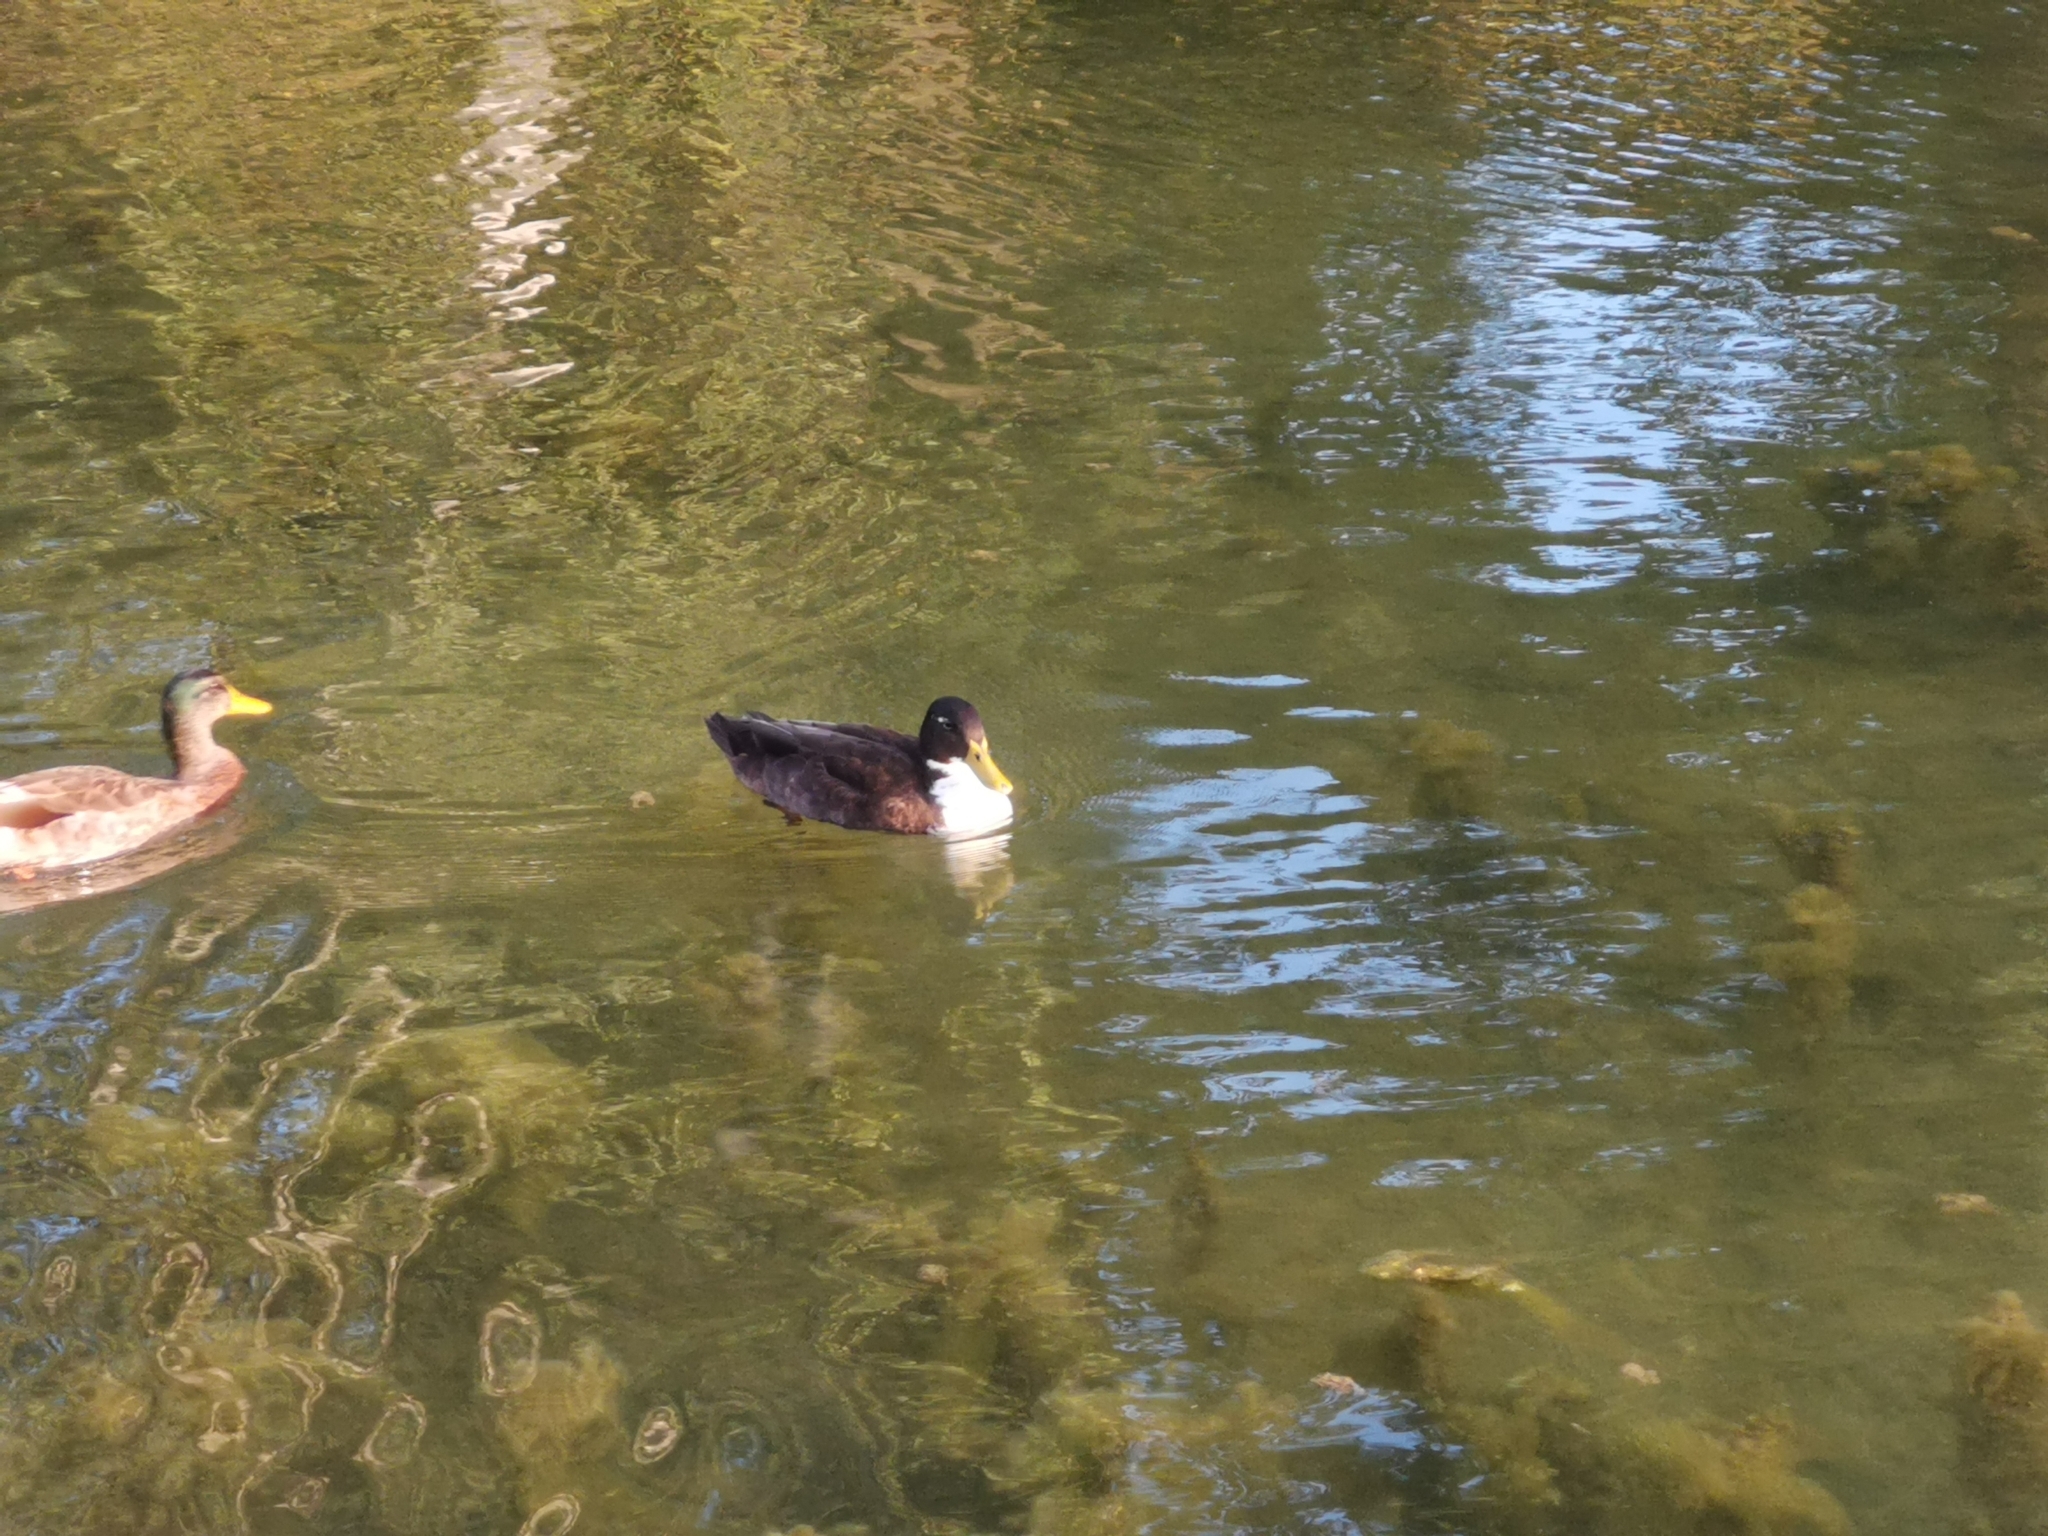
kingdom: Animalia
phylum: Chordata
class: Aves
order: Anseriformes
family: Anatidae
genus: Anas
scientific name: Anas platyrhynchos
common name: Mallard
